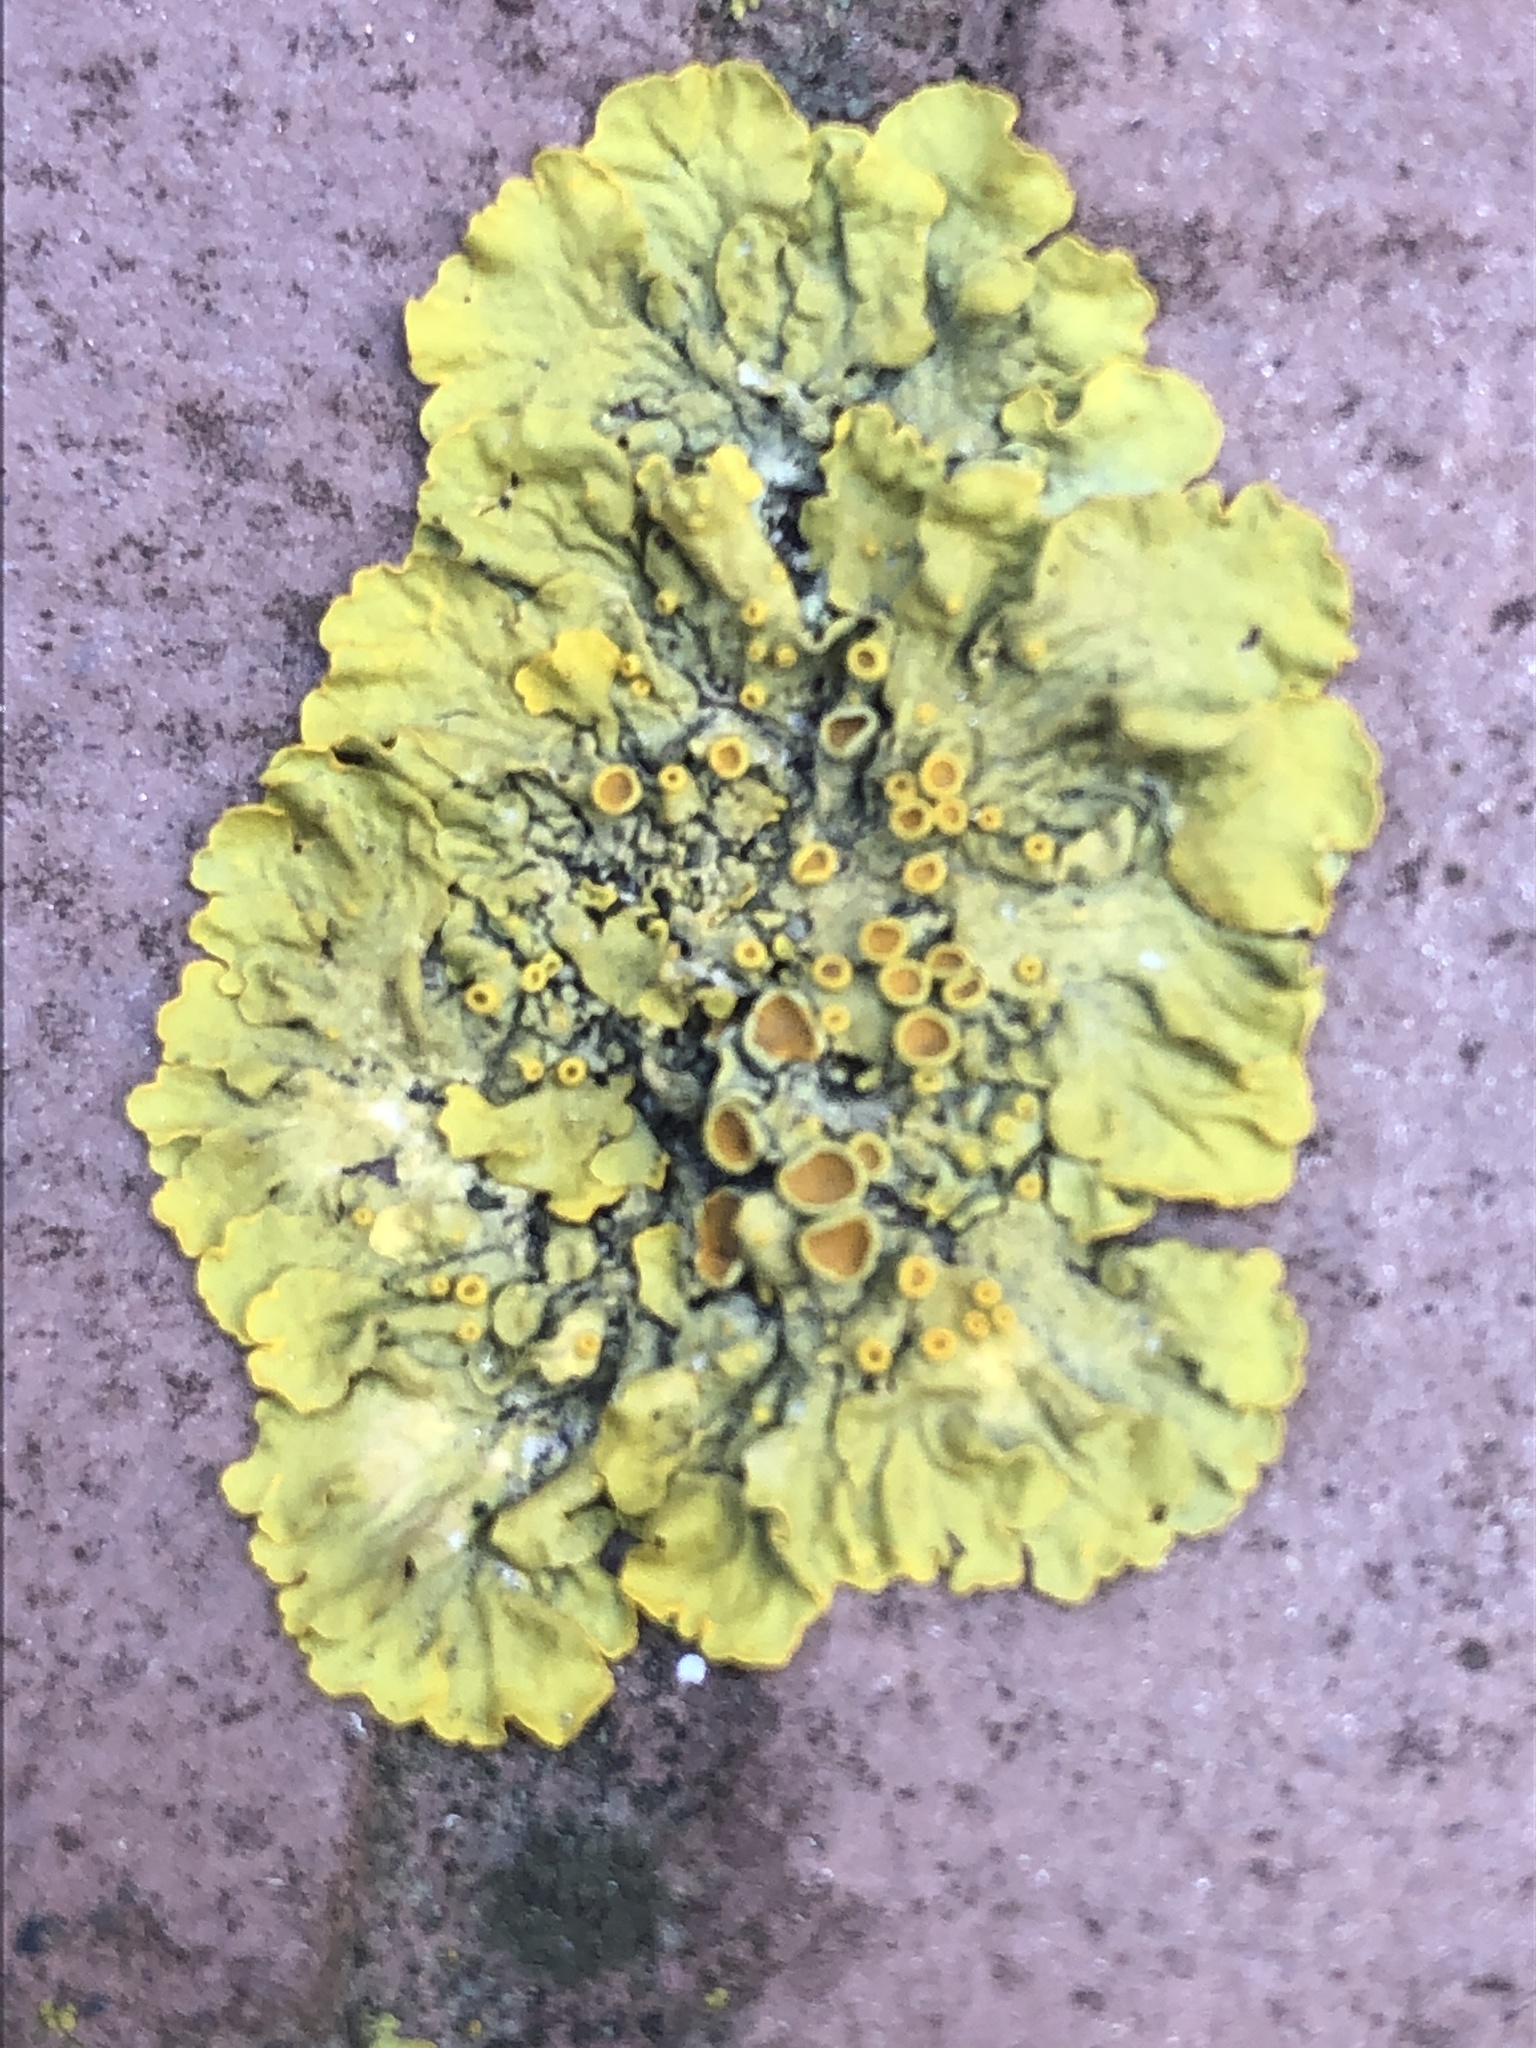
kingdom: Fungi
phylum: Ascomycota
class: Lecanoromycetes
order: Teloschistales
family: Teloschistaceae
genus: Xanthoria
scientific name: Xanthoria parietina
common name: Common orange lichen
